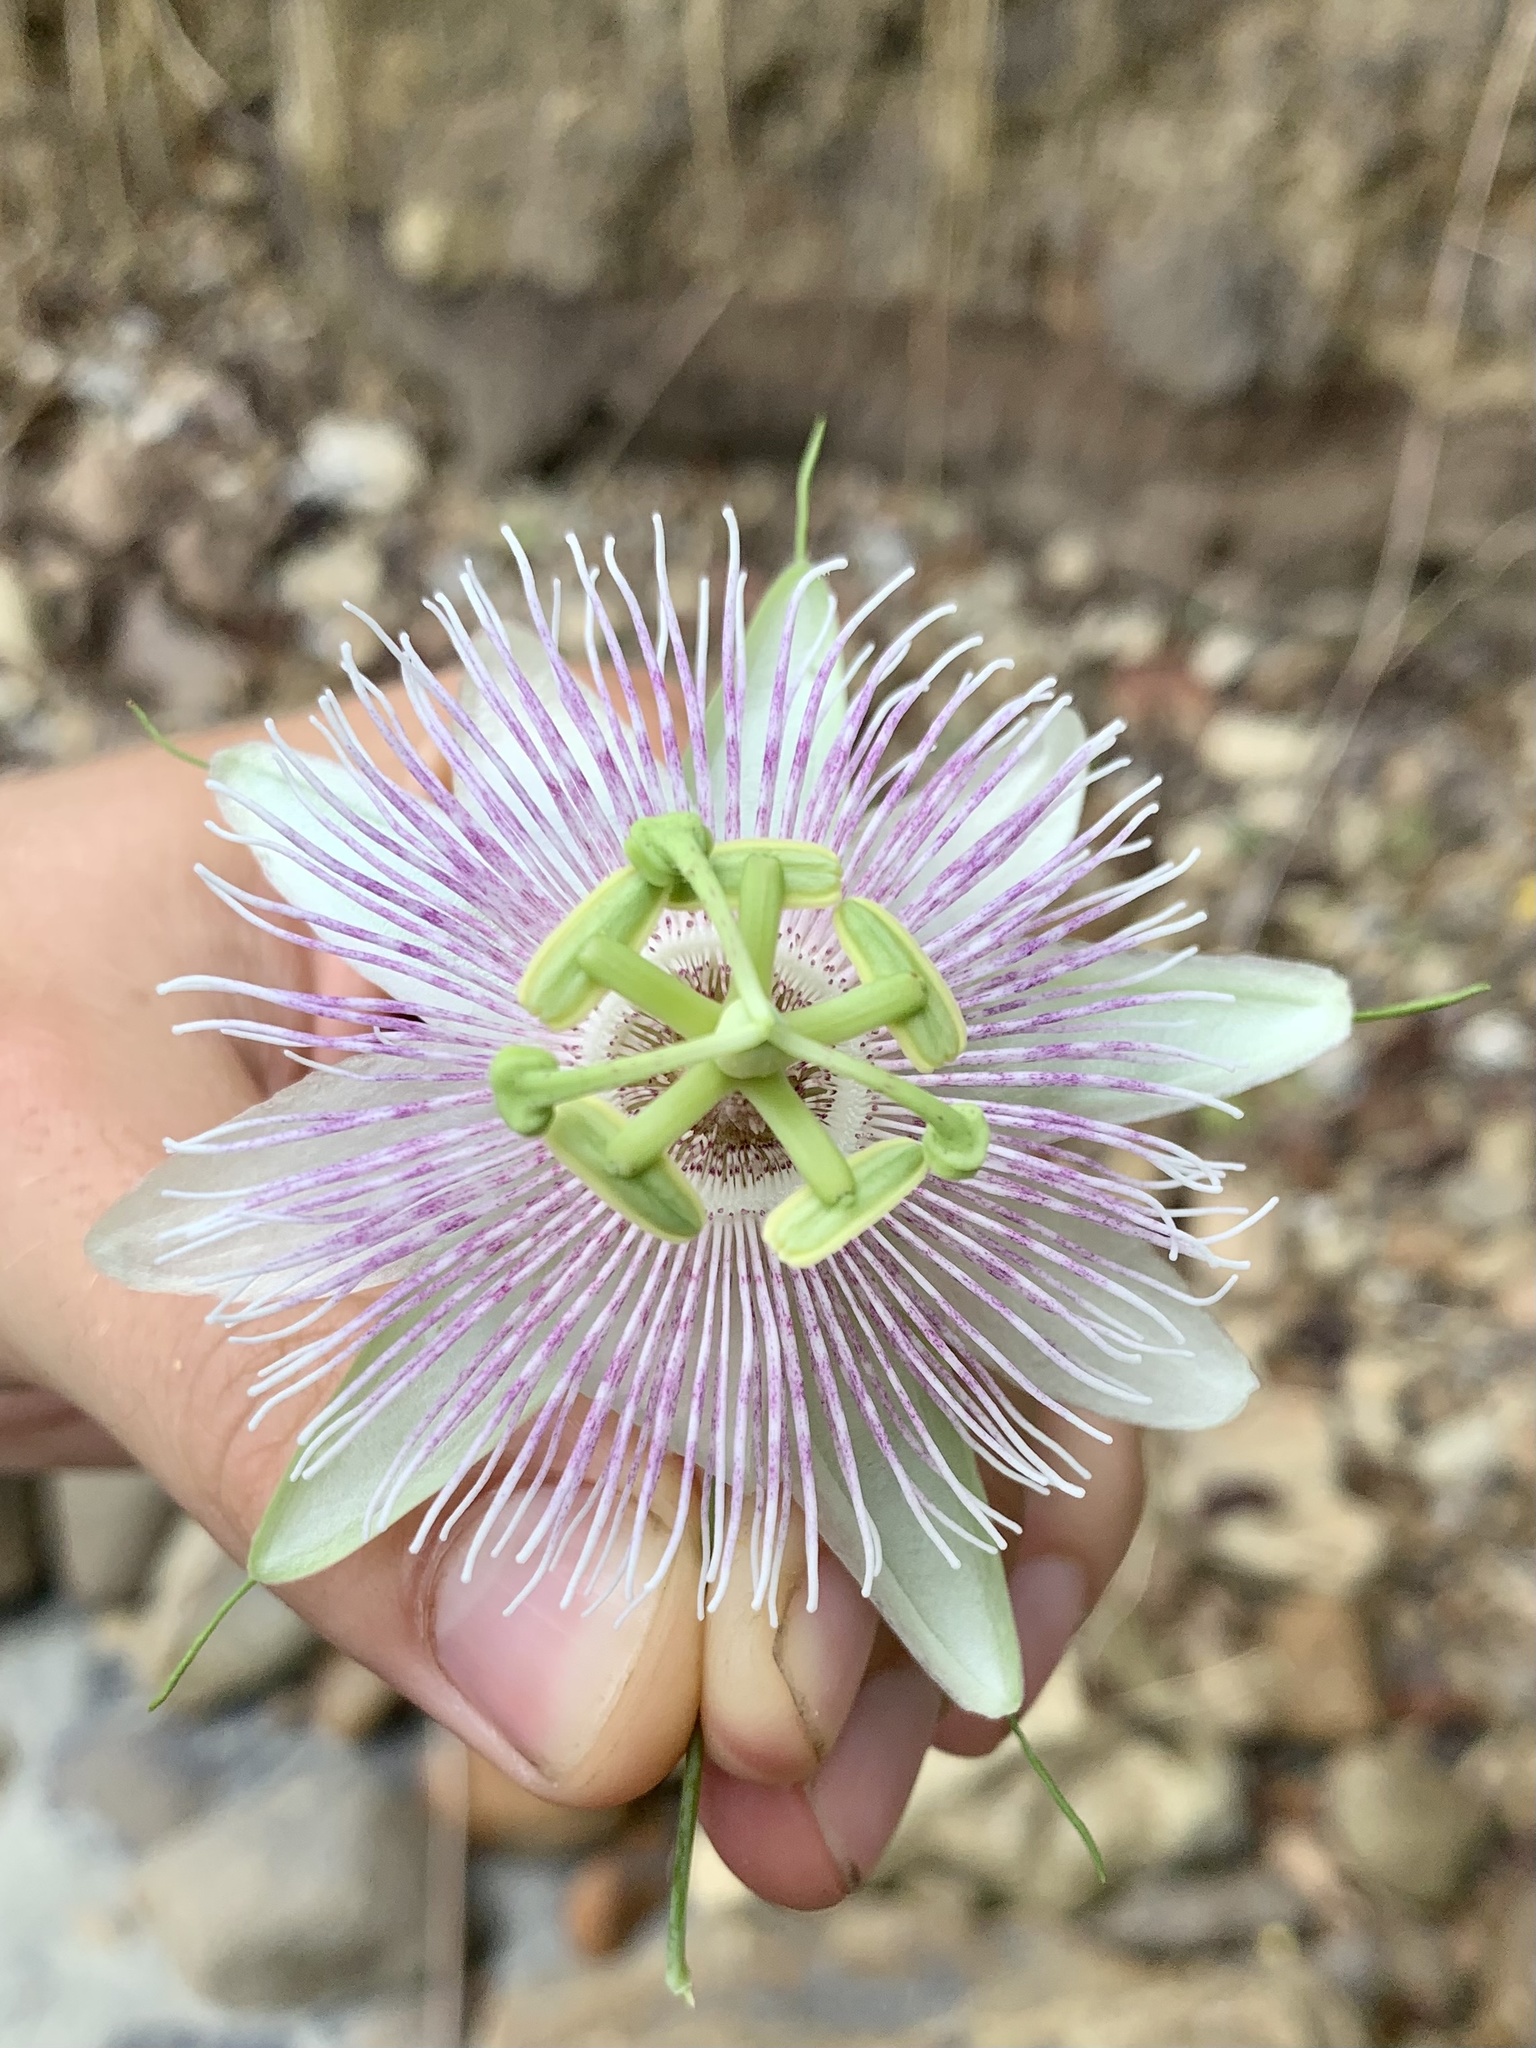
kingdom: Plantae
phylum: Tracheophyta
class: Magnoliopsida
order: Malpighiales
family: Passifloraceae
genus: Passiflora
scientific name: Passiflora sprucei
